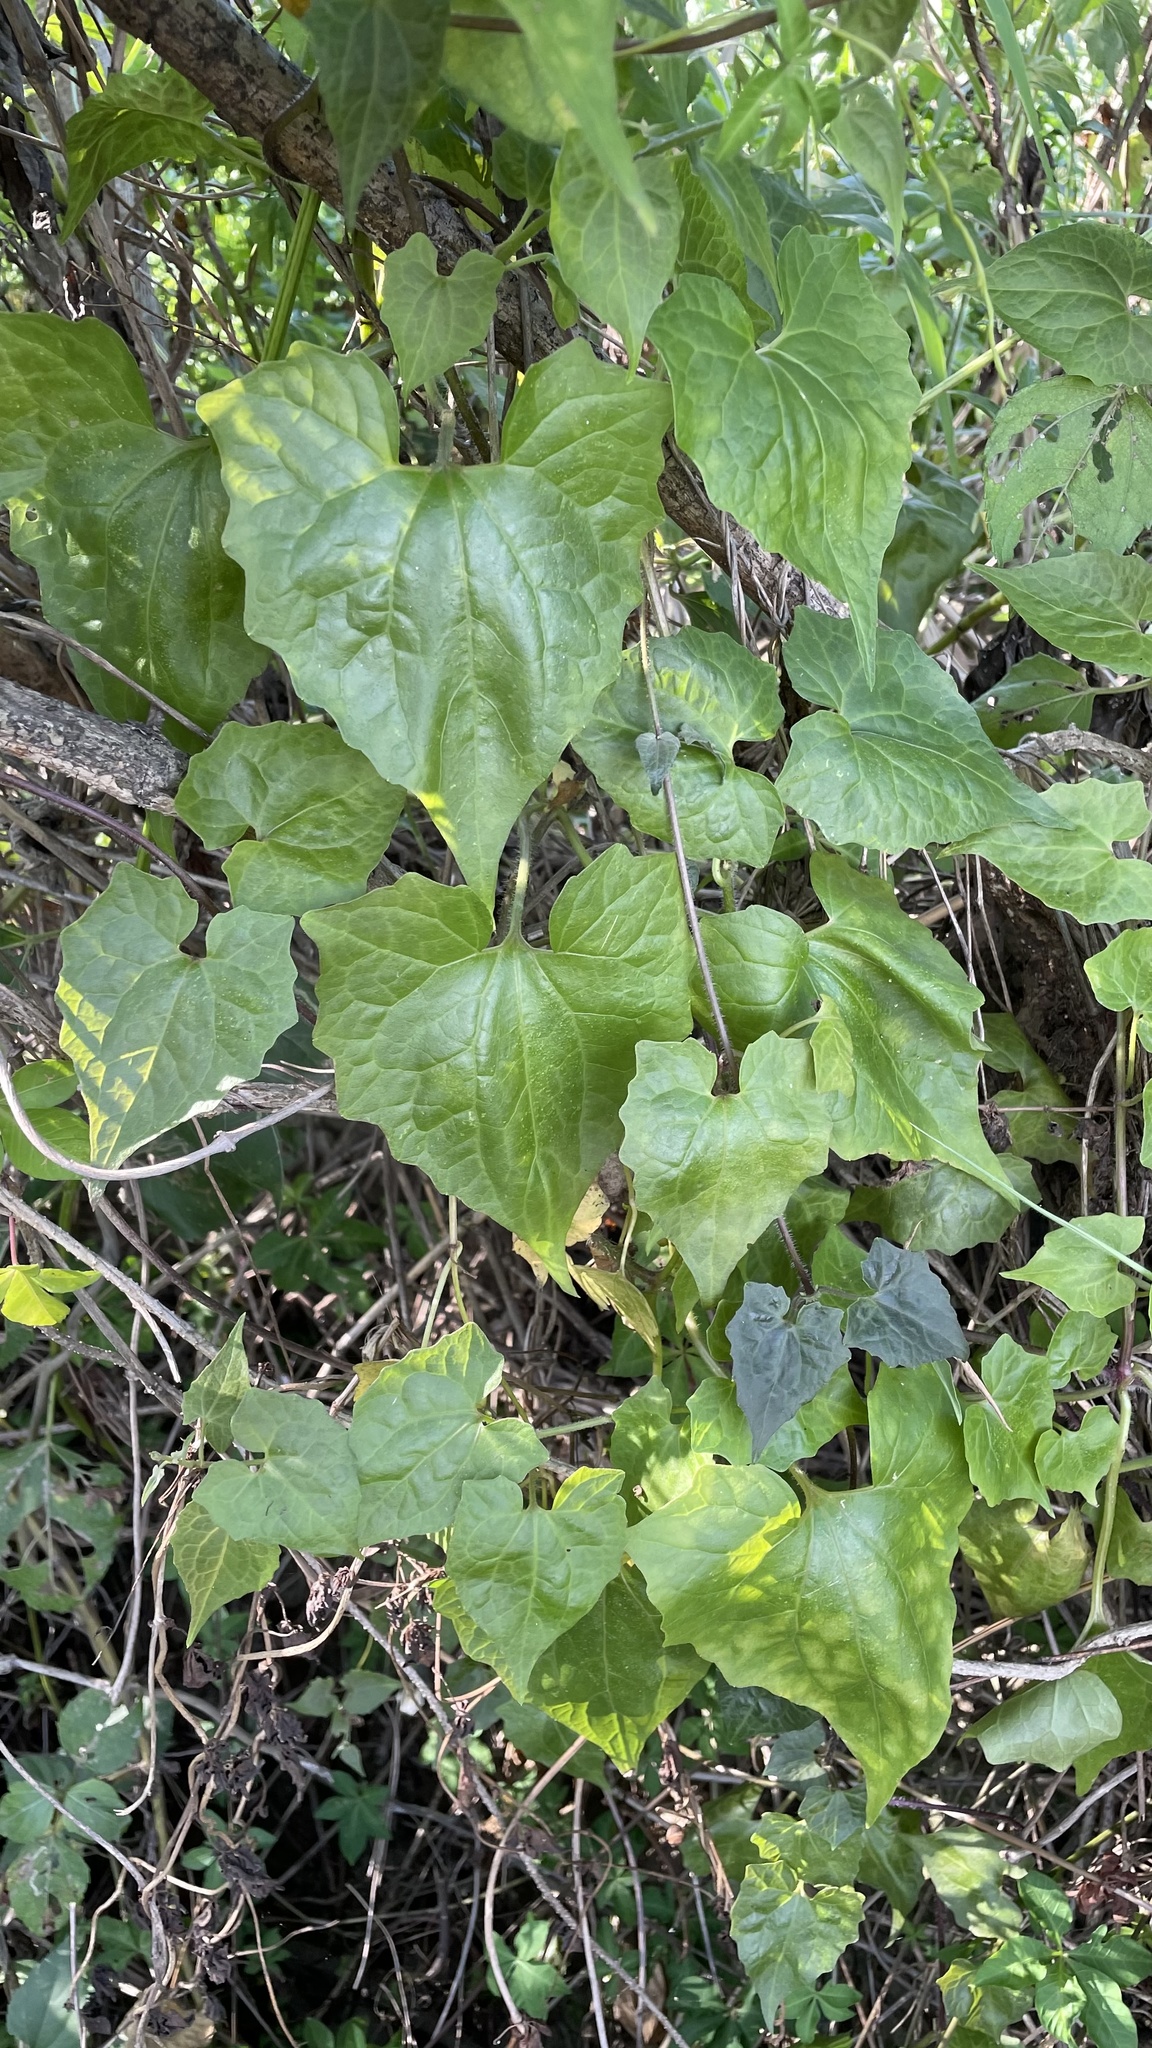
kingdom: Plantae
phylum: Tracheophyta
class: Magnoliopsida
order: Asterales
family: Asteraceae
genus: Mikania
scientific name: Mikania micrantha
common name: Mile-a-minute
